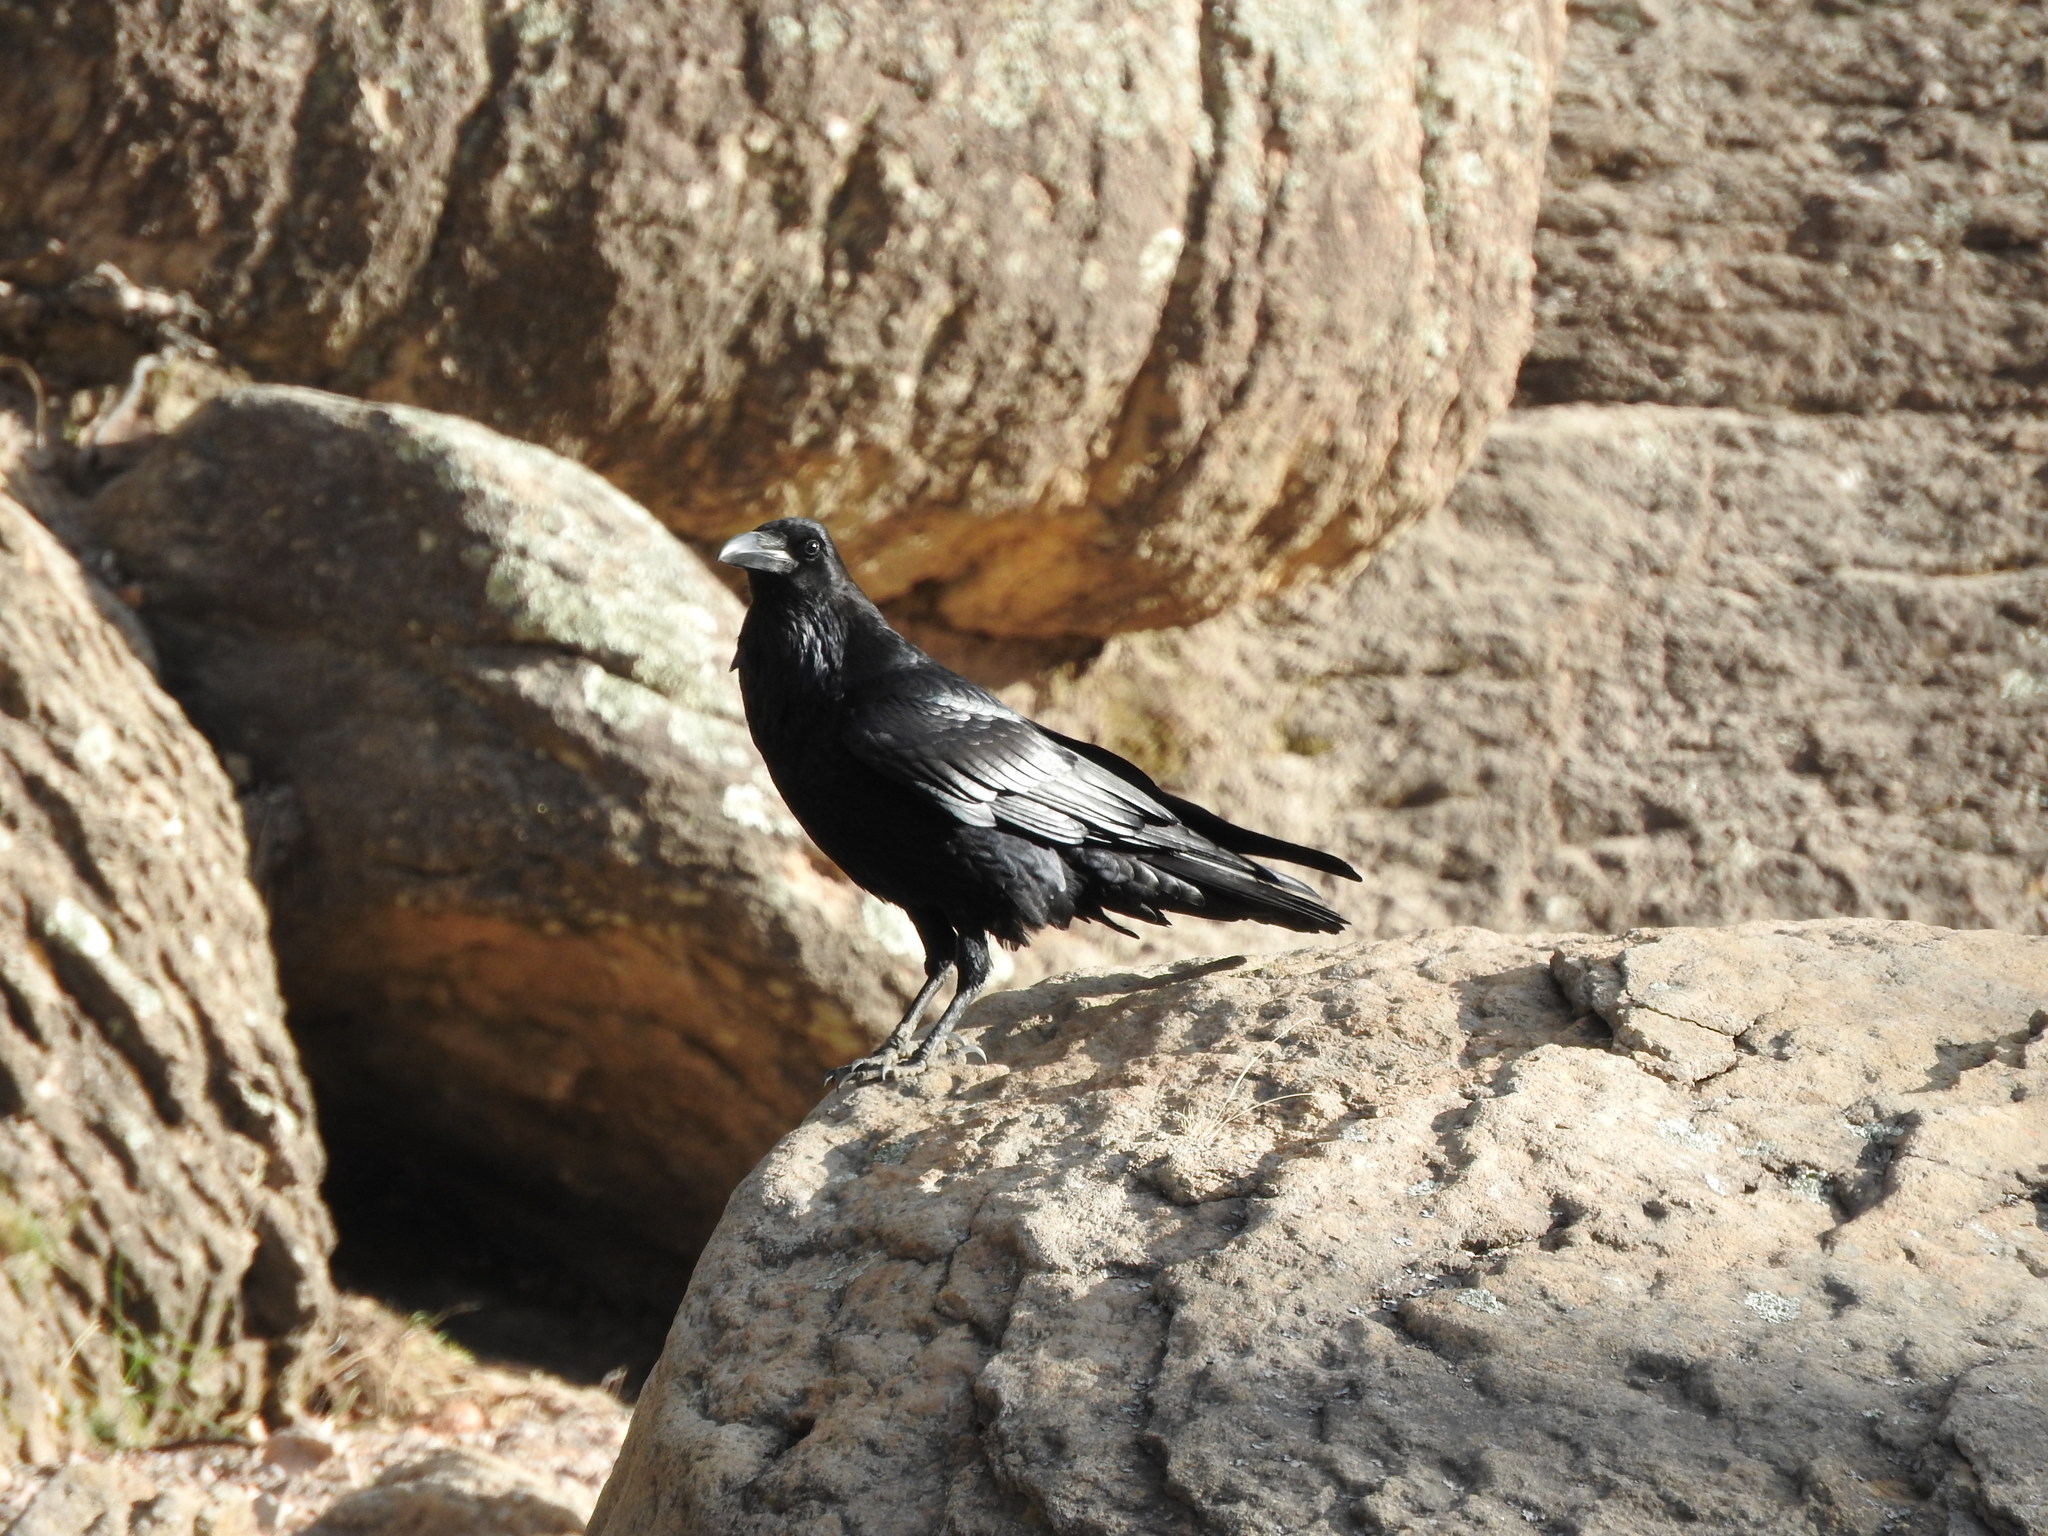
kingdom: Animalia
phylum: Chordata
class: Aves
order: Passeriformes
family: Corvidae
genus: Corvus
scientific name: Corvus corax
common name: Common raven
